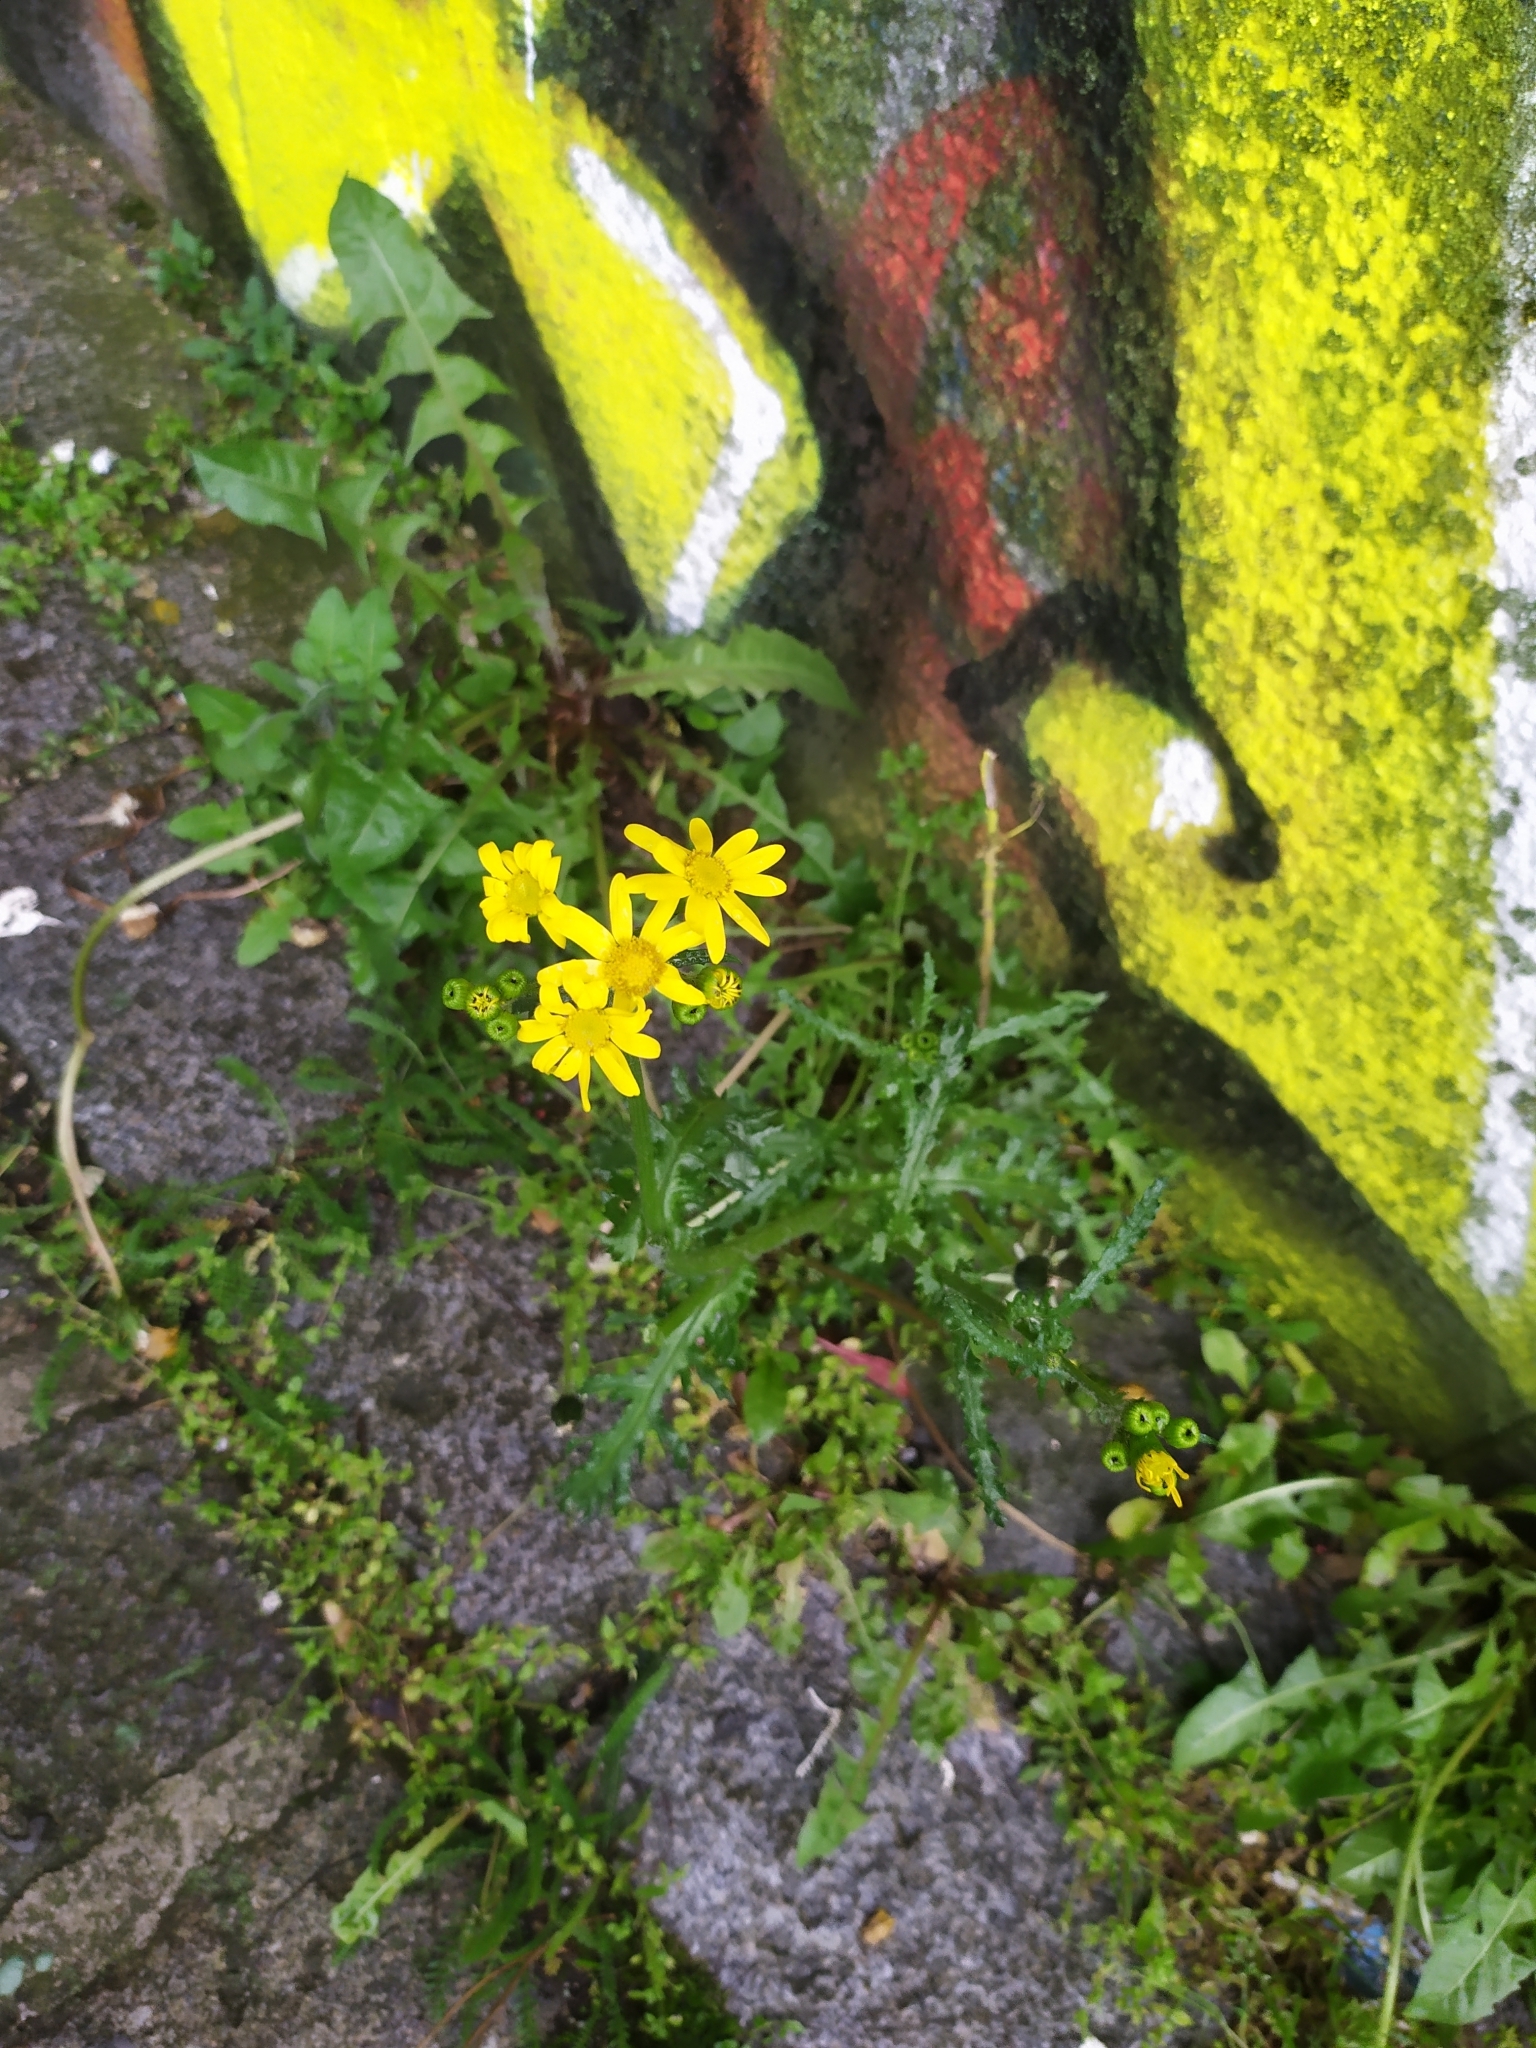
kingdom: Plantae
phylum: Tracheophyta
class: Magnoliopsida
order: Asterales
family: Asteraceae
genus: Senecio
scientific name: Senecio vernalis
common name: Eastern groundsel
